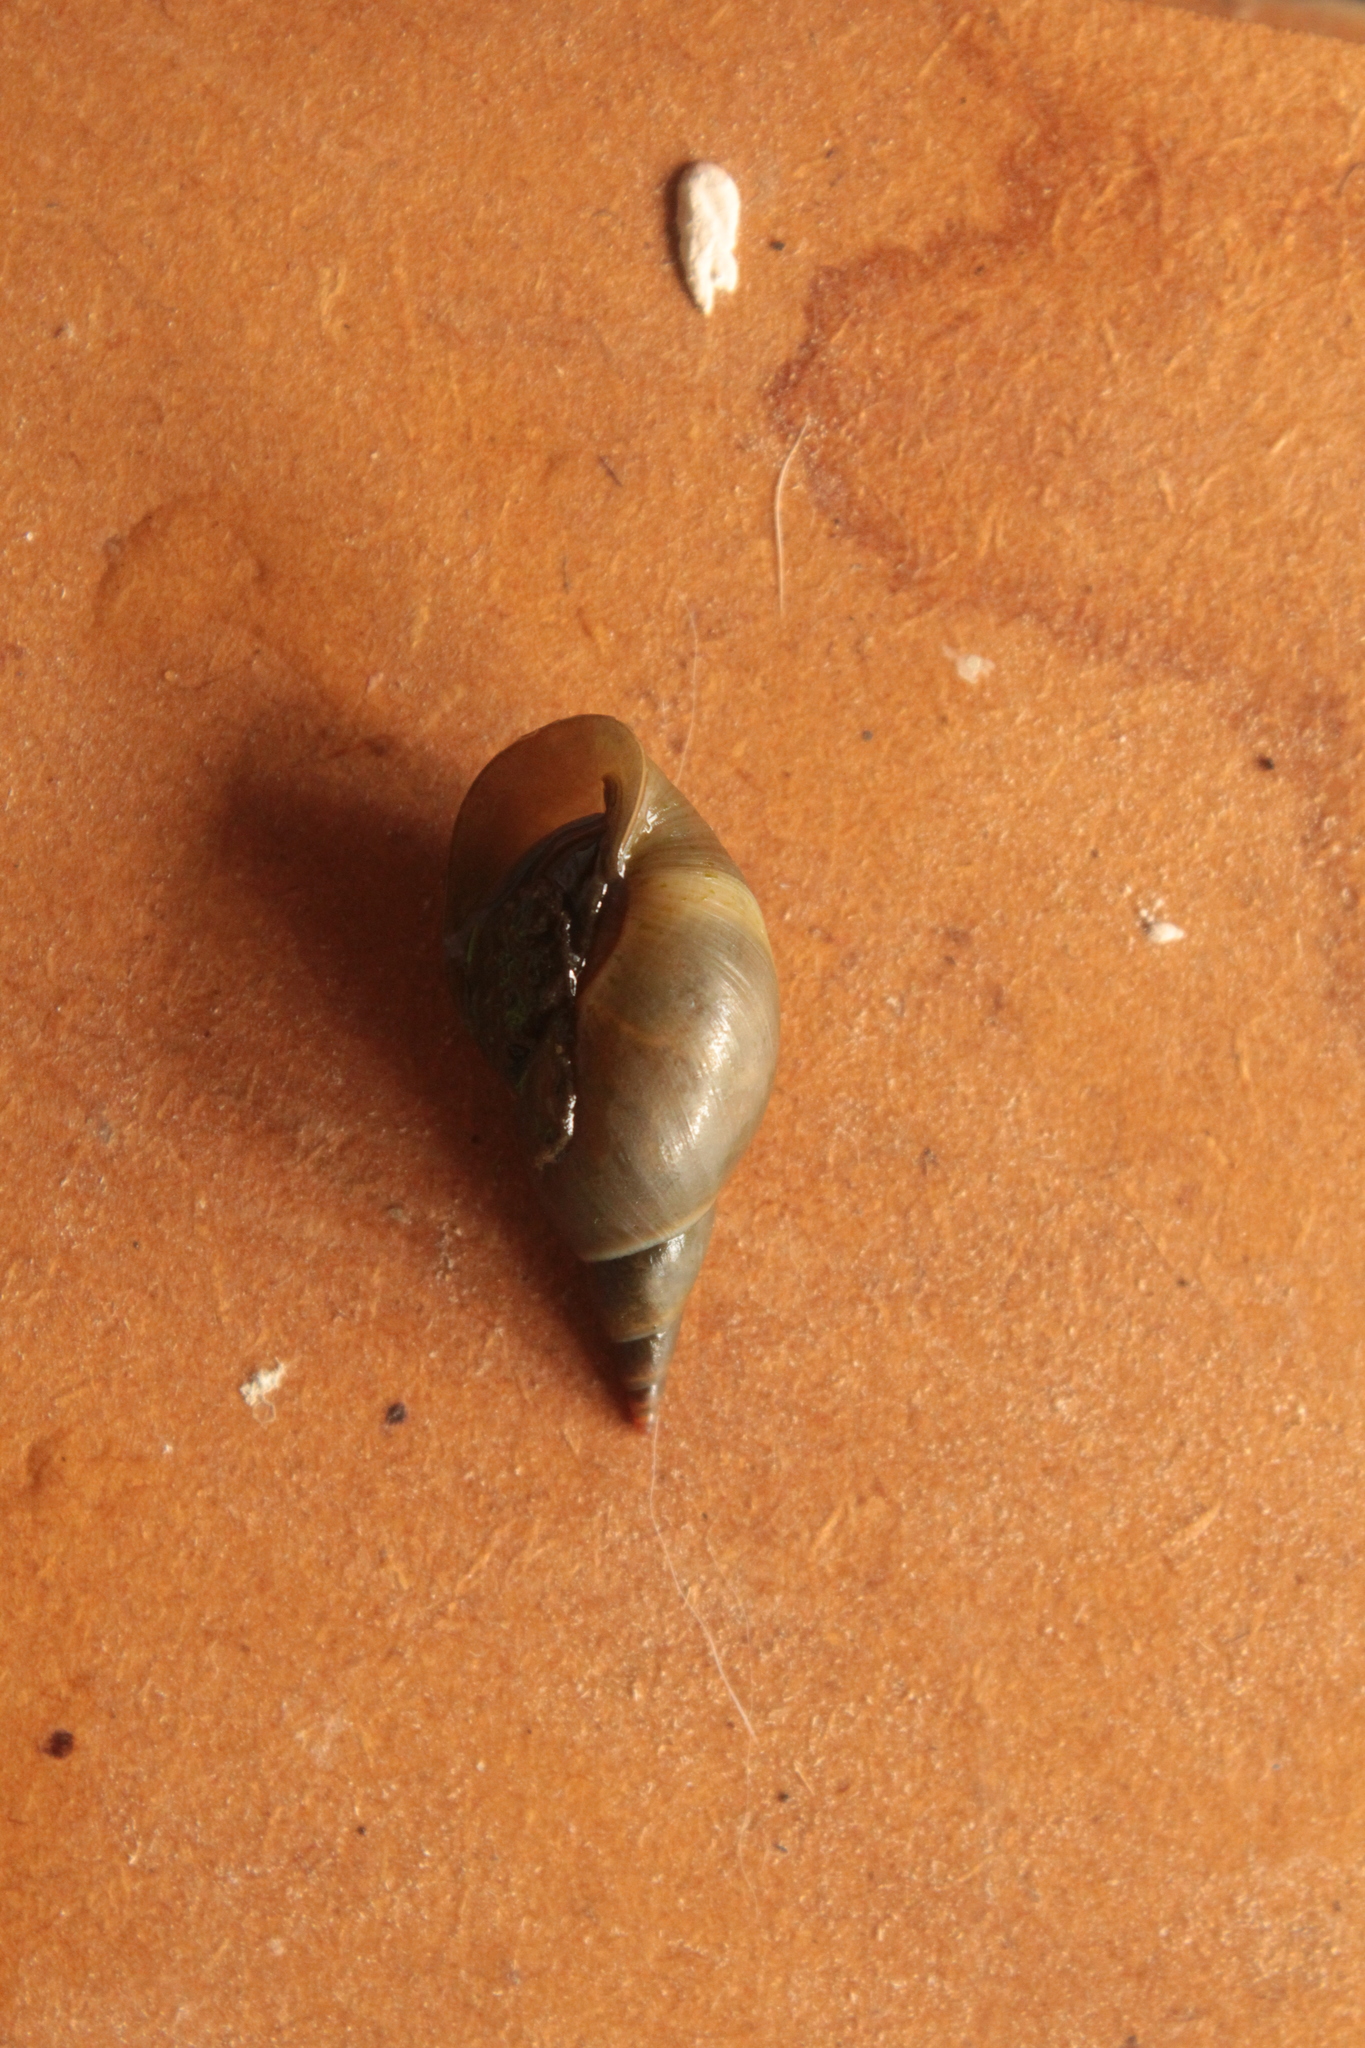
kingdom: Animalia
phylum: Mollusca
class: Gastropoda
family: Lymnaeidae
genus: Lymnaea
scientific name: Lymnaea stagnalis
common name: Great pond snail
